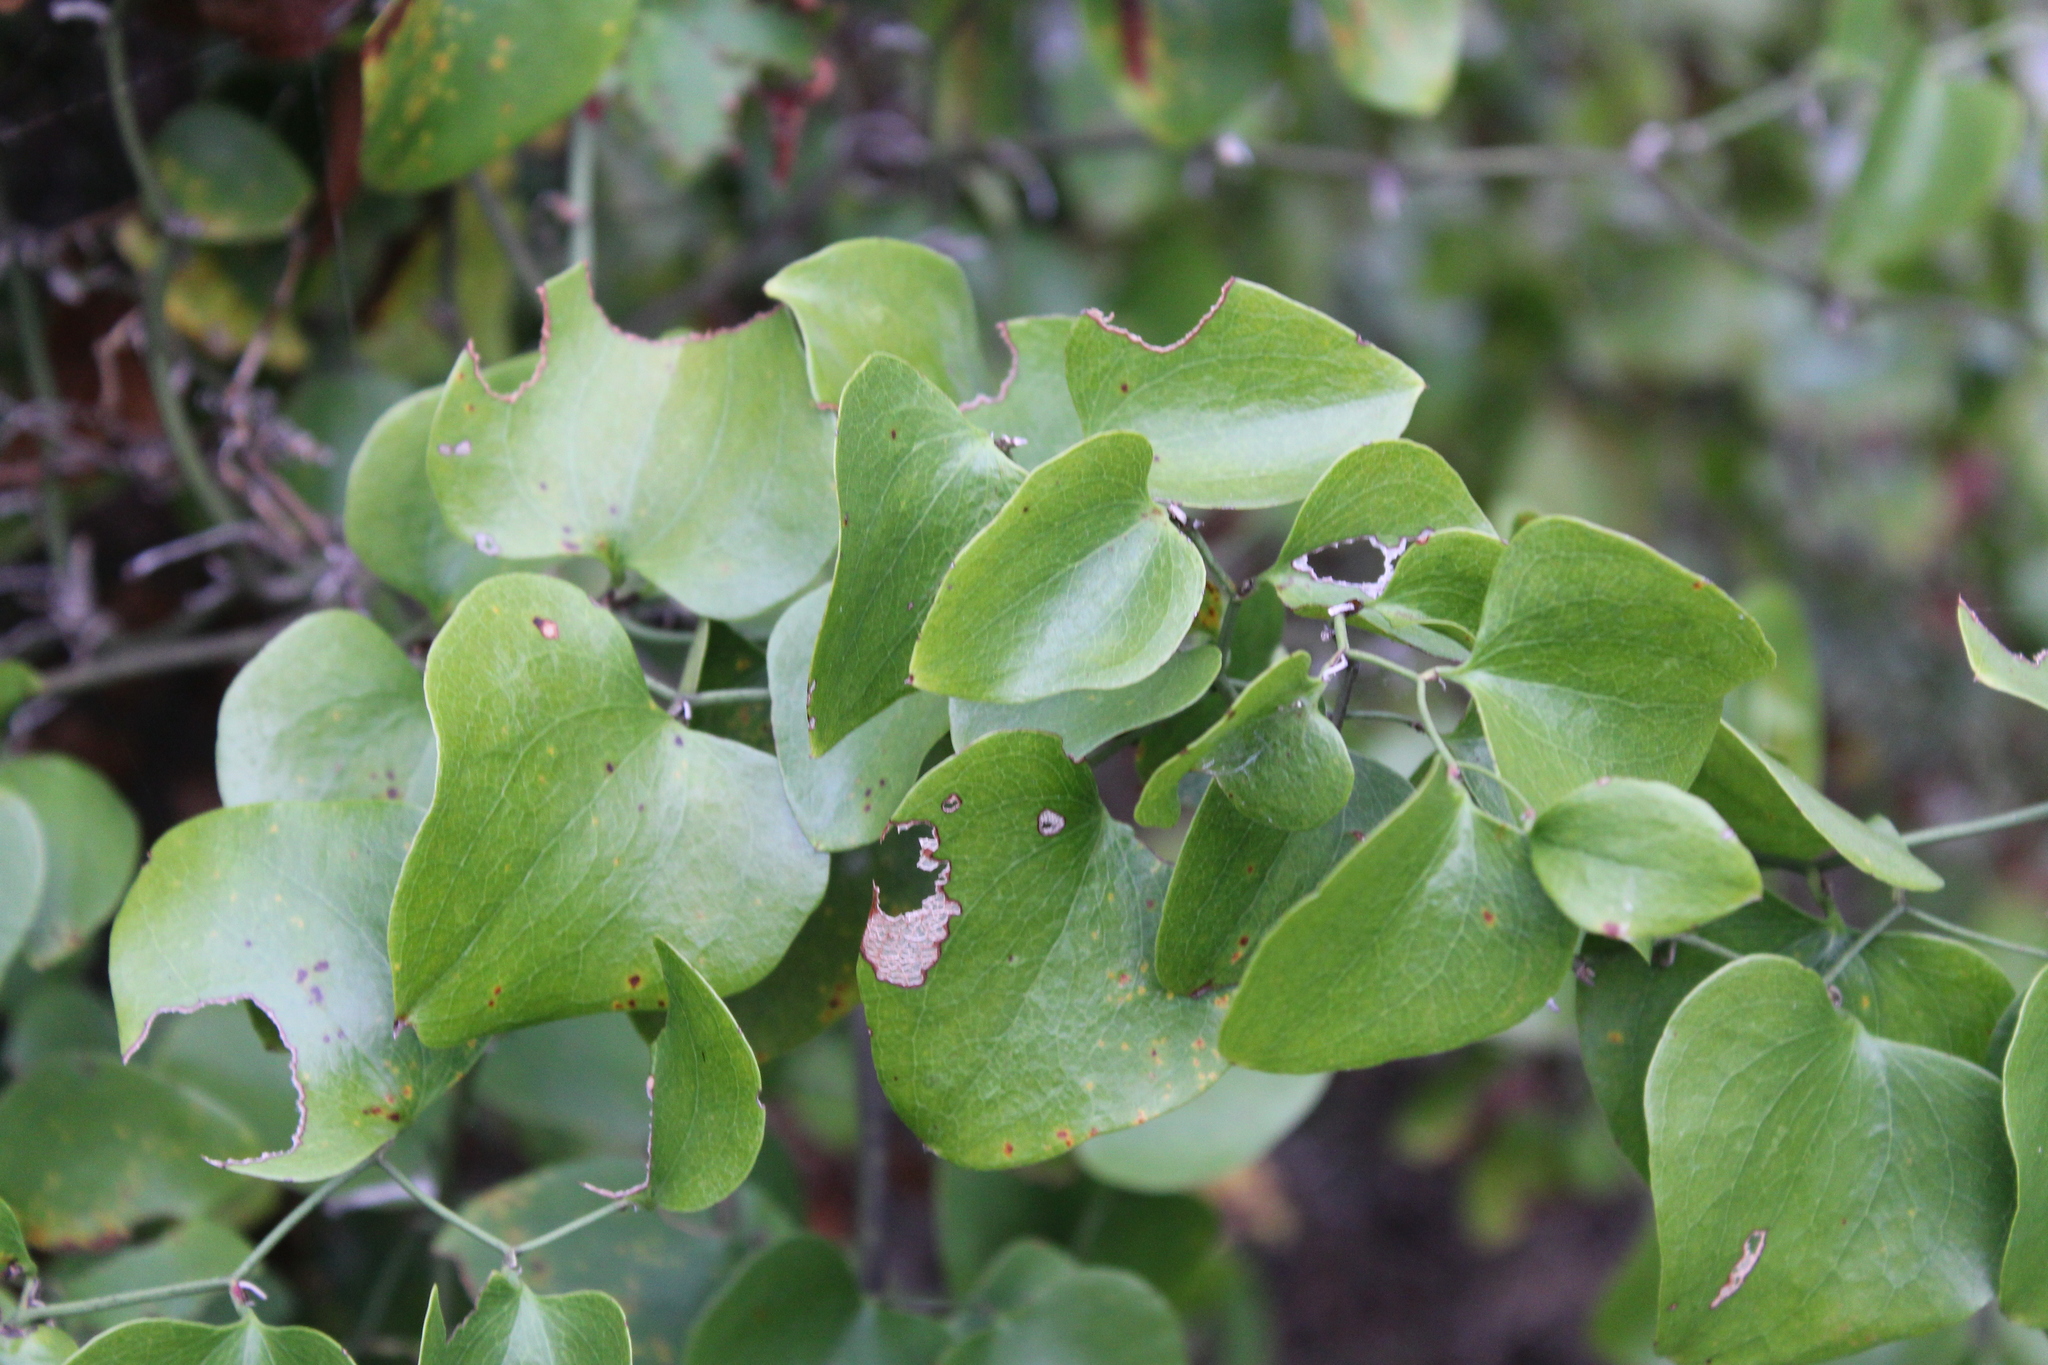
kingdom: Plantae
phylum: Tracheophyta
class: Liliopsida
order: Liliales
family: Smilacaceae
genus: Smilax
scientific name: Smilax bona-nox
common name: Catbrier
